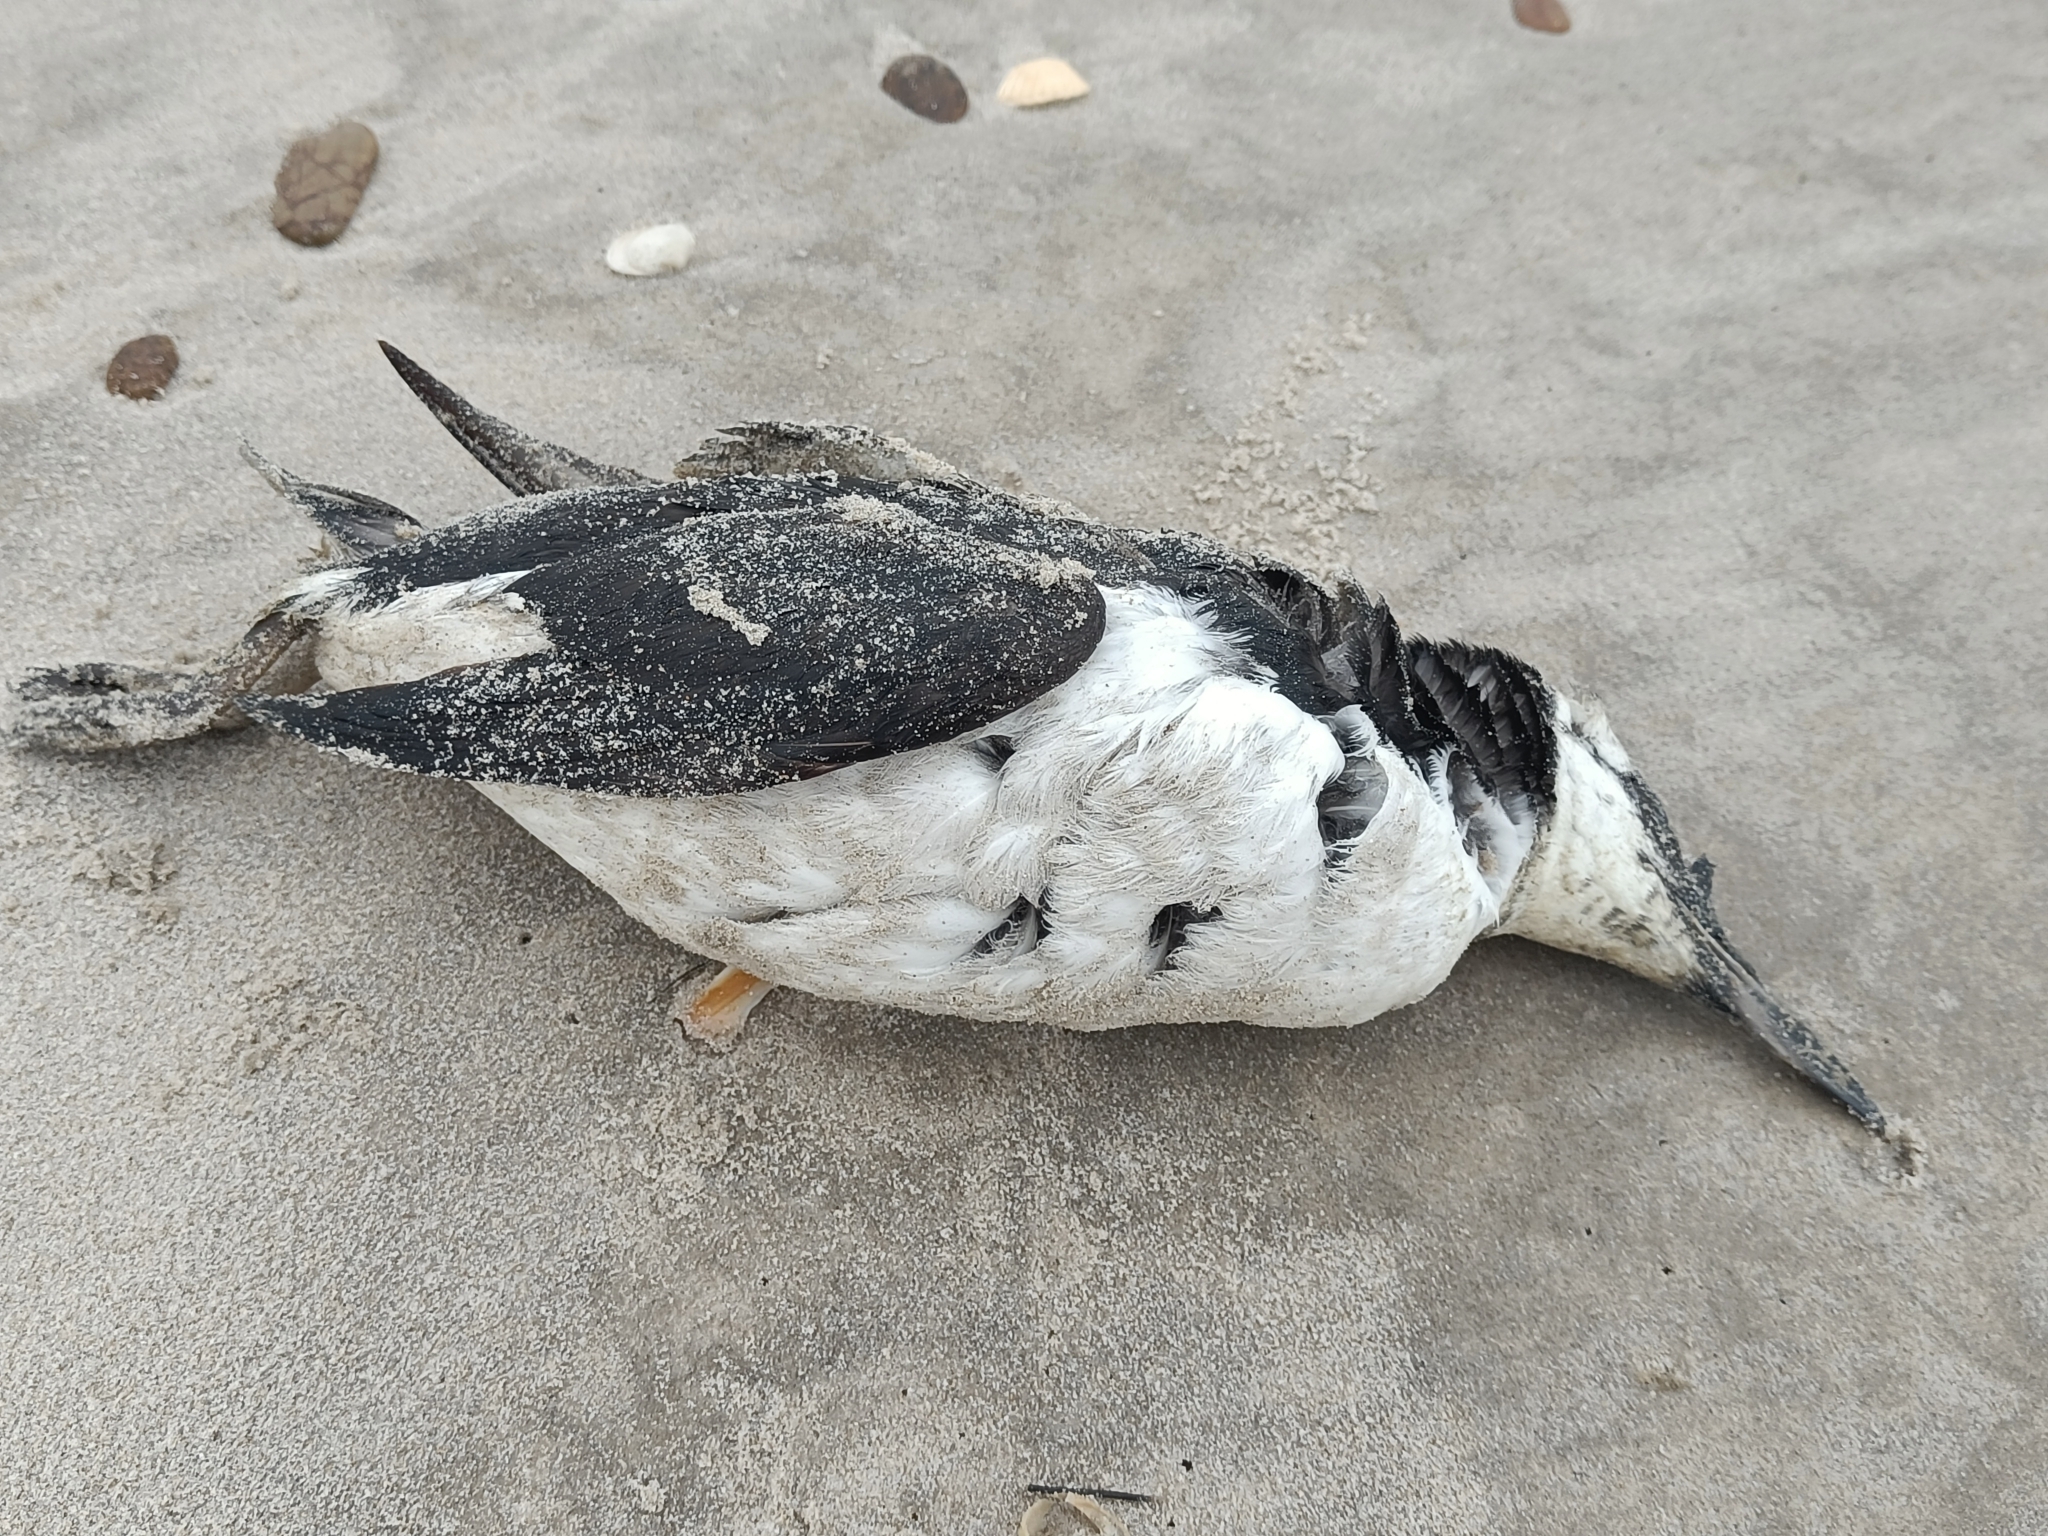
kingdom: Animalia
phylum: Chordata
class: Aves
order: Charadriiformes
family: Alcidae
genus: Uria
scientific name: Uria aalge
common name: Common murre
